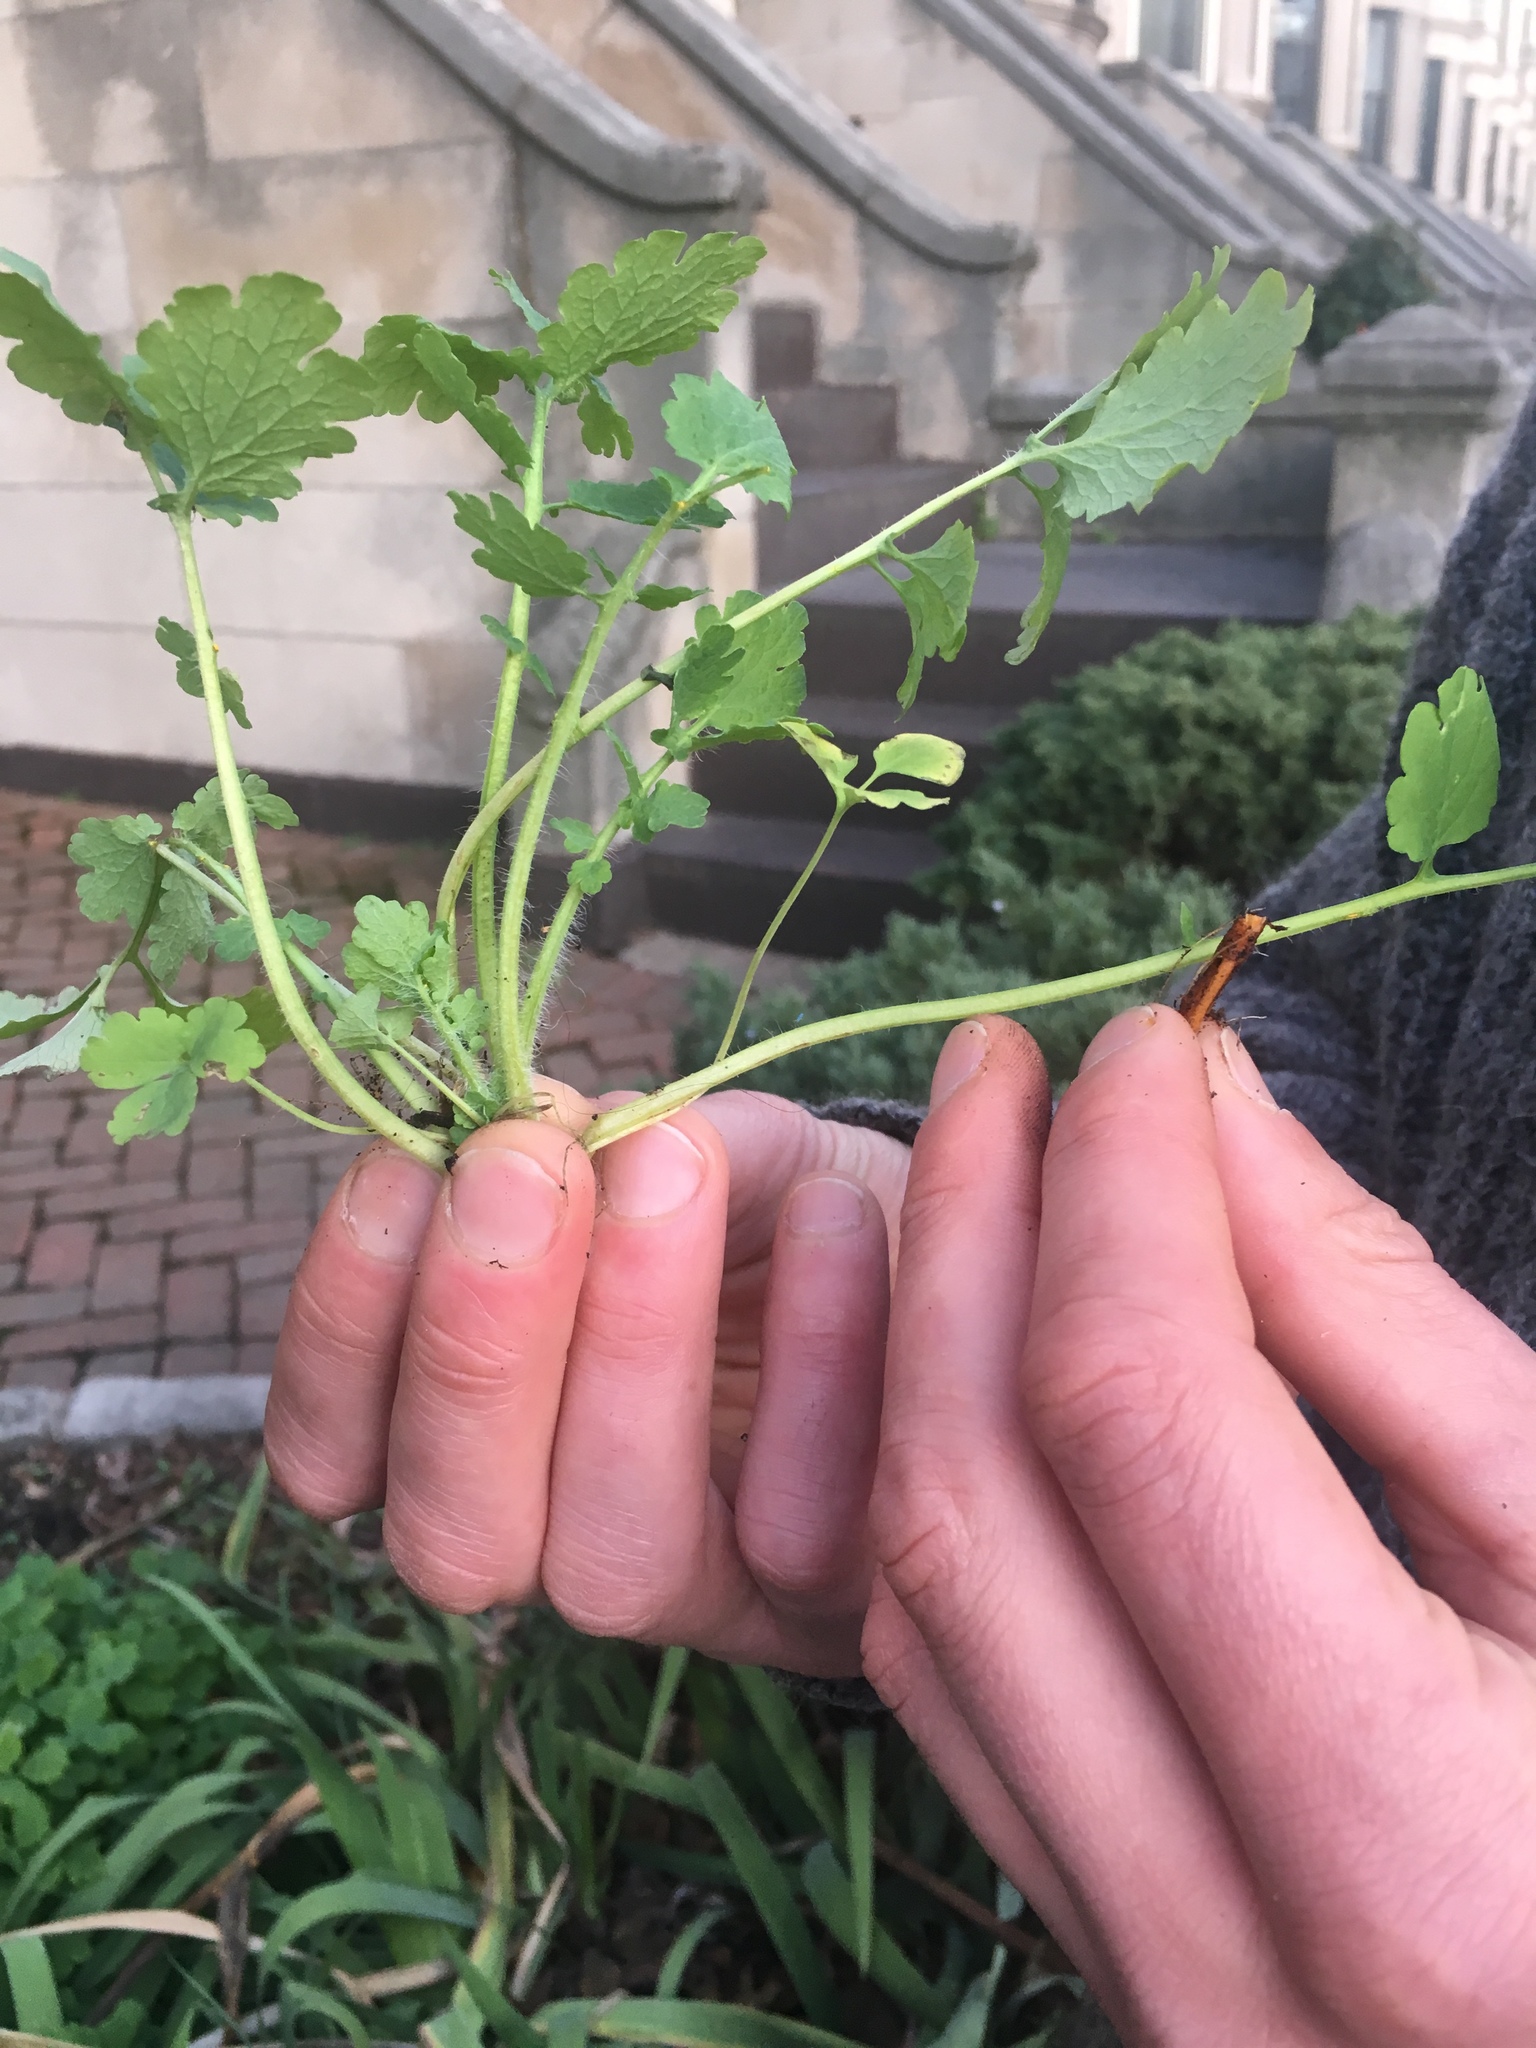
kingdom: Plantae
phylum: Tracheophyta
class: Magnoliopsida
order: Ranunculales
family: Papaveraceae
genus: Chelidonium
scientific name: Chelidonium majus
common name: Greater celandine
